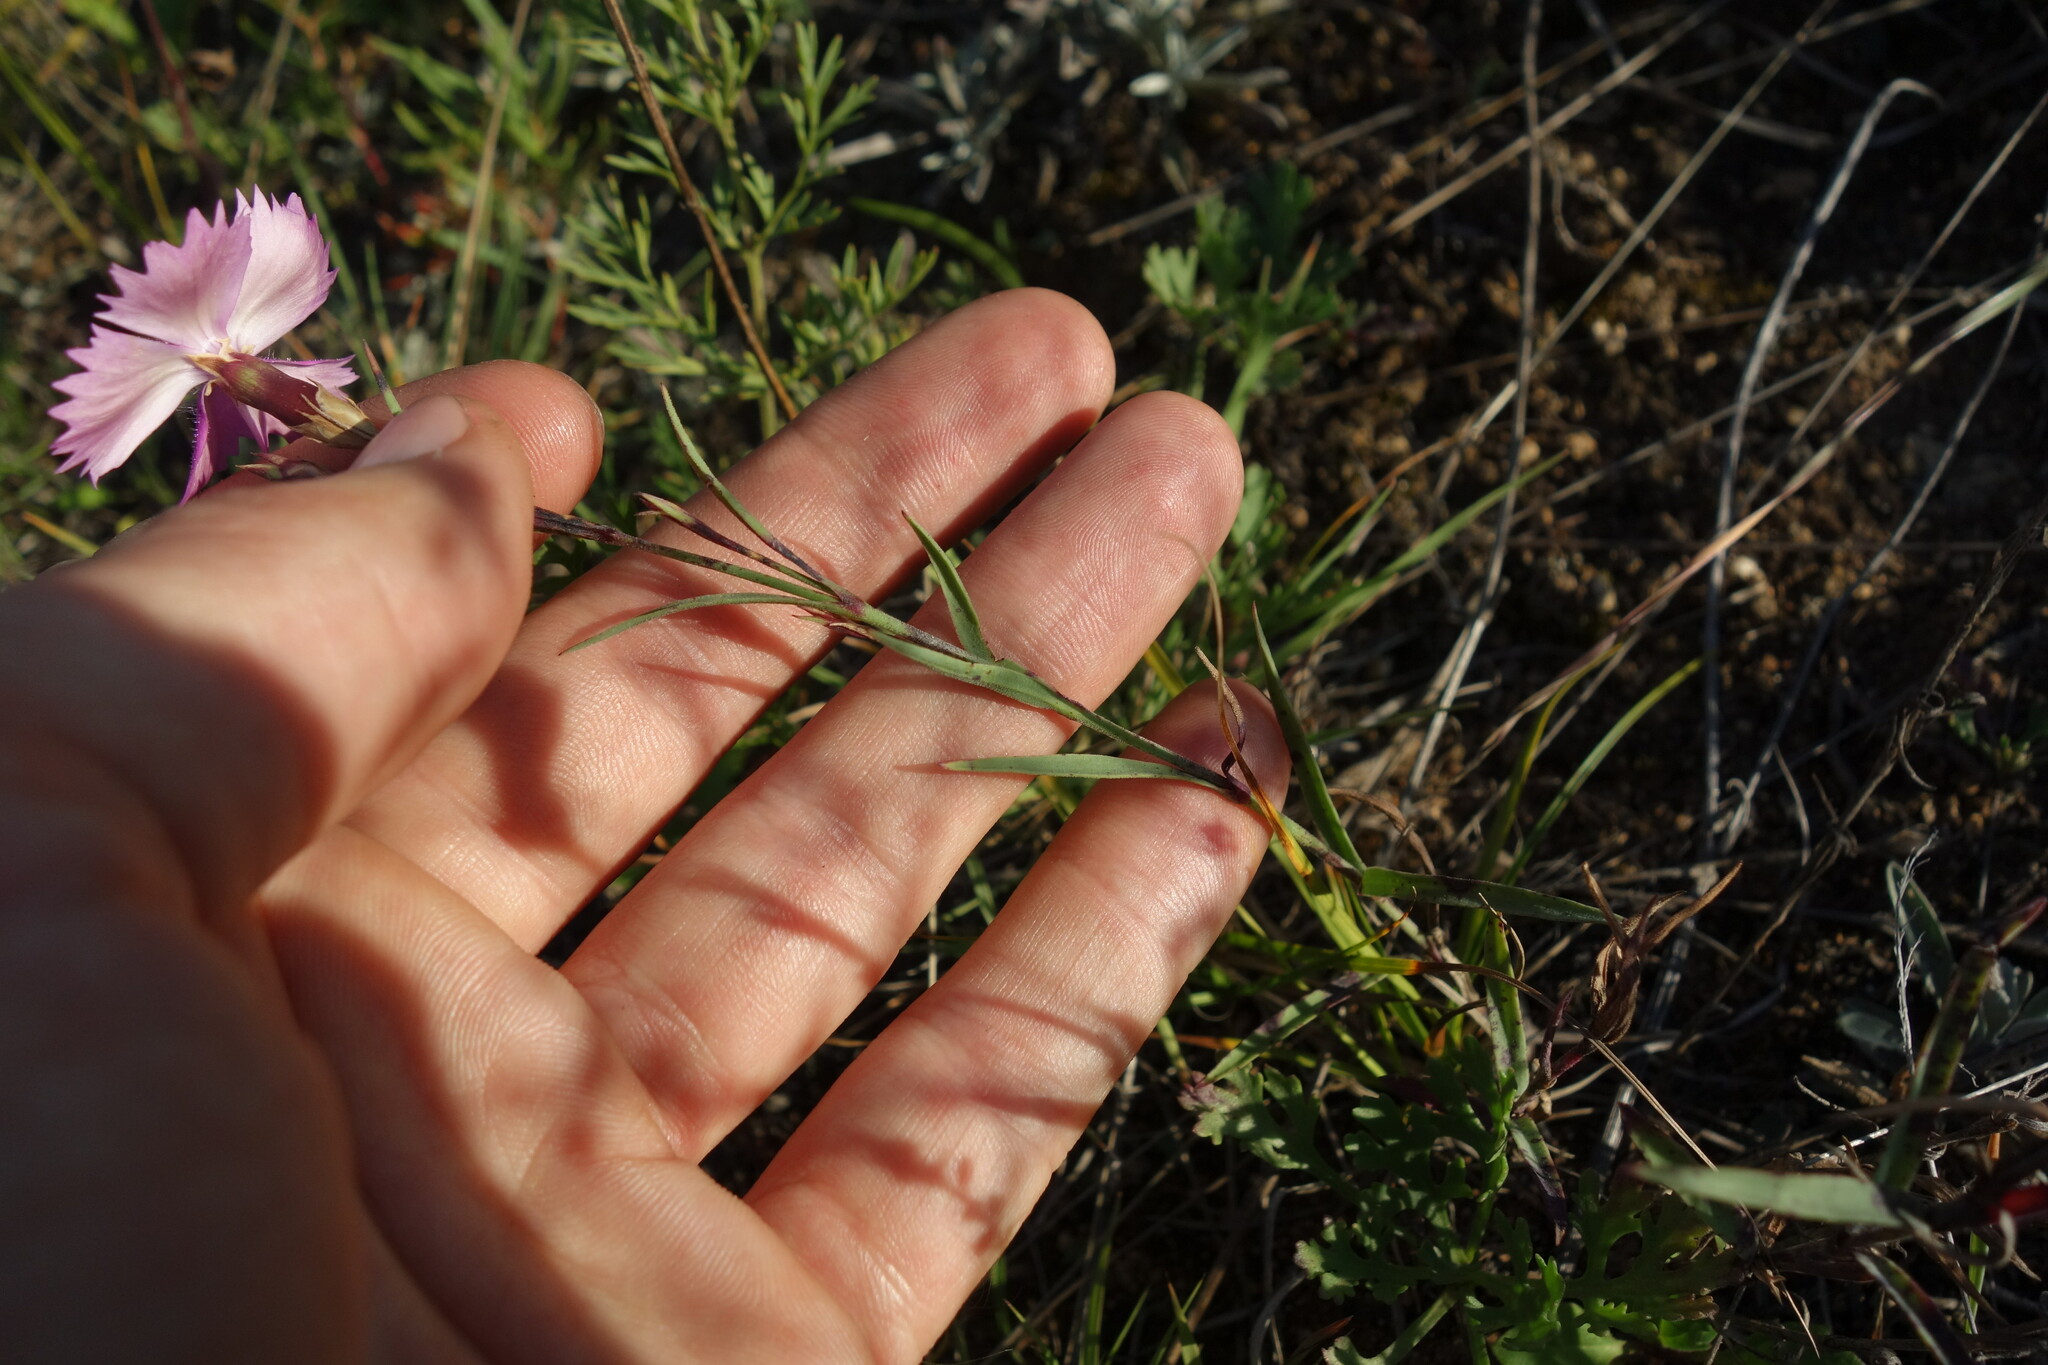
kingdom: Plantae
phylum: Tracheophyta
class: Magnoliopsida
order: Caryophyllales
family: Caryophyllaceae
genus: Dianthus
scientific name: Dianthus chinensis
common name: Rainbow pink
